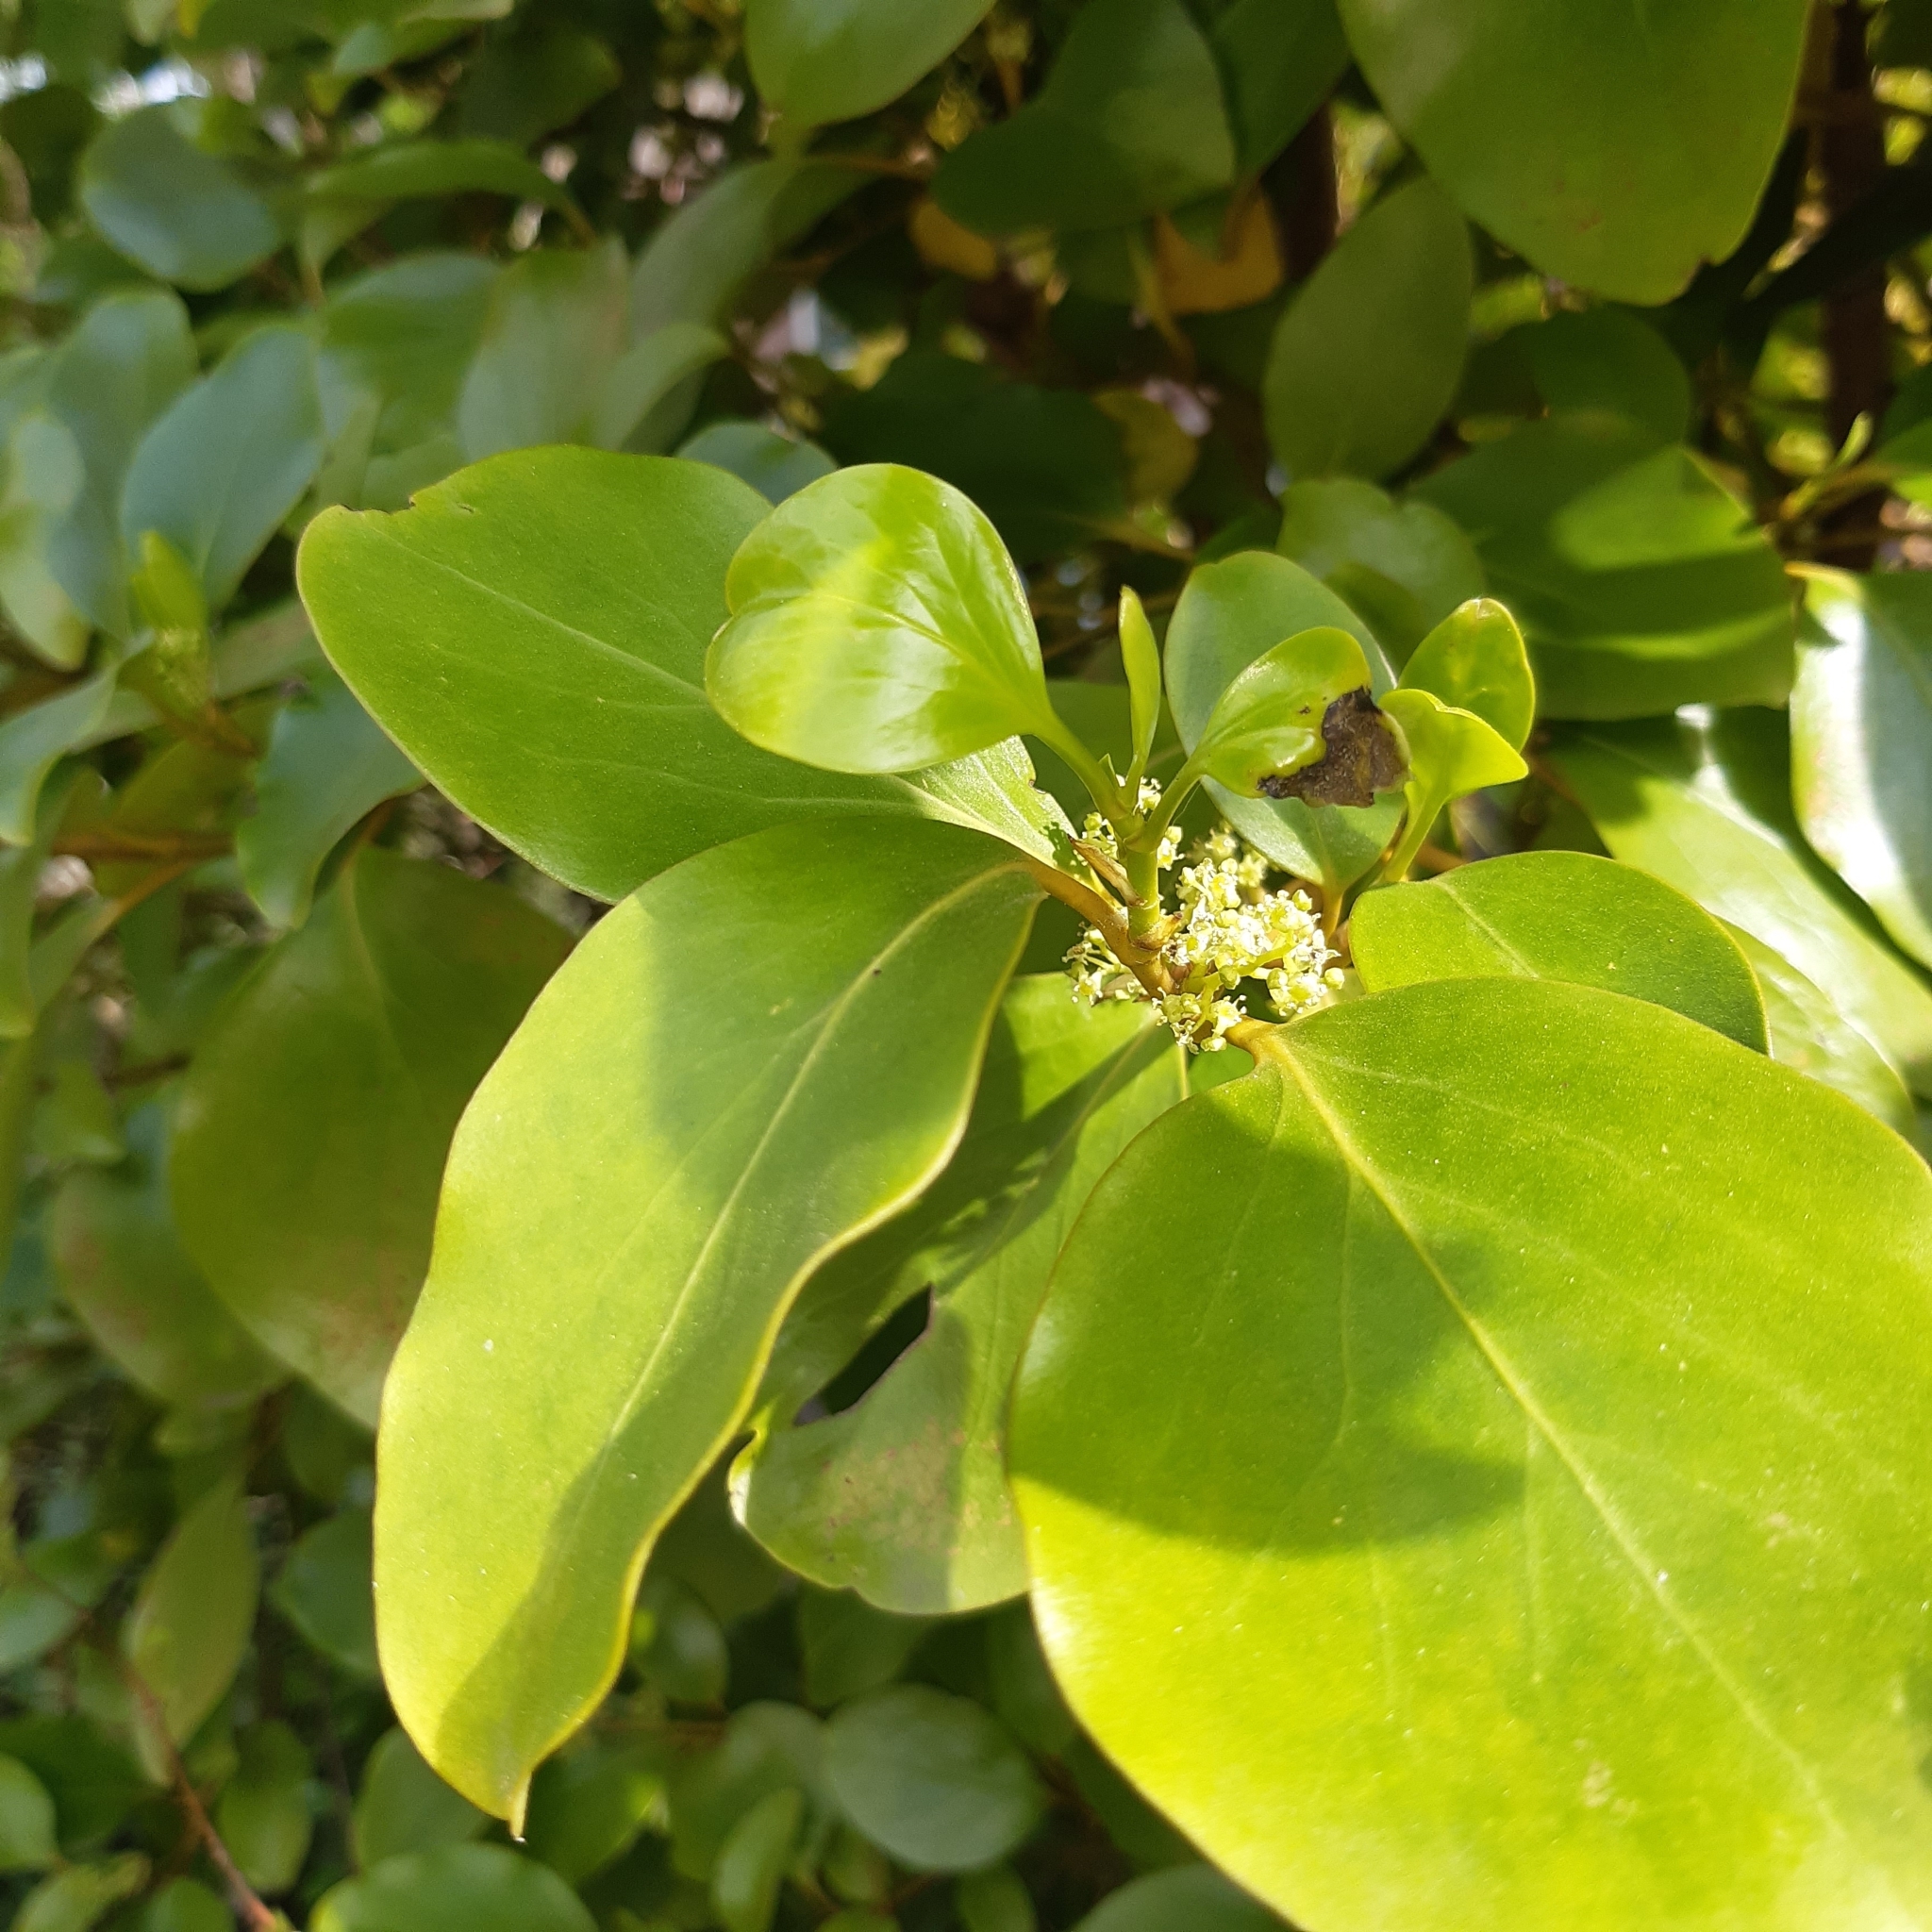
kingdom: Plantae
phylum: Tracheophyta
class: Magnoliopsida
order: Apiales
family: Griseliniaceae
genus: Griselinia
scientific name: Griselinia littoralis
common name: New zealand broadleaf
